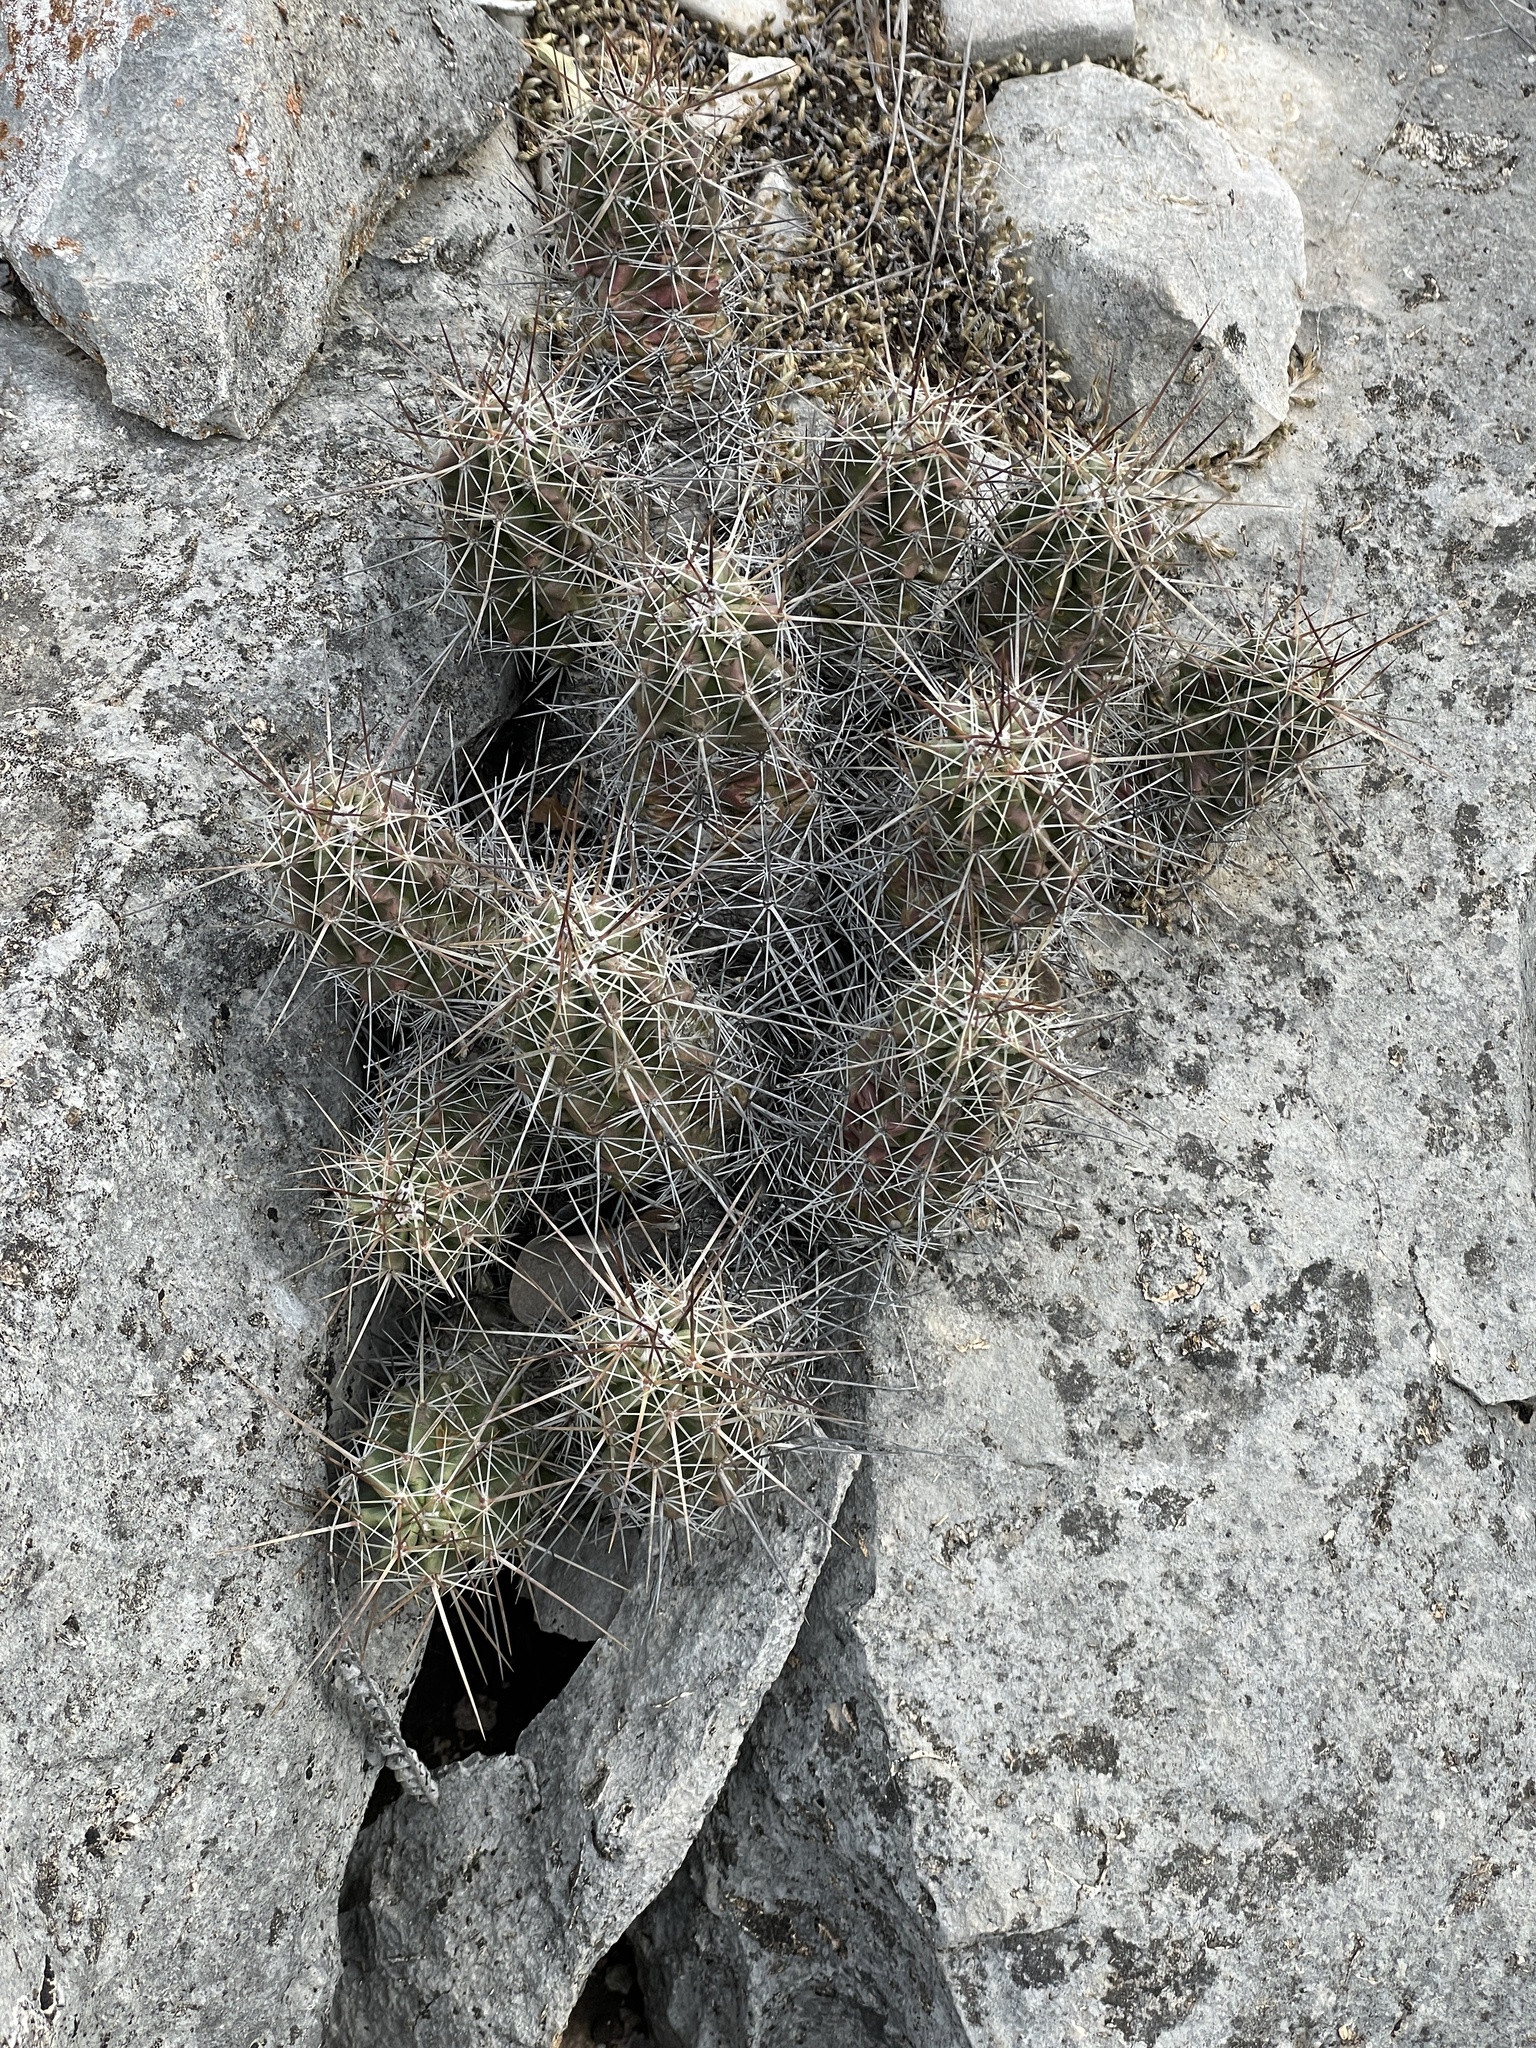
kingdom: Plantae
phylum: Tracheophyta
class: Magnoliopsida
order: Caryophyllales
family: Cactaceae
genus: Echinocereus
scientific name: Echinocereus enneacanthus
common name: Pitaya
